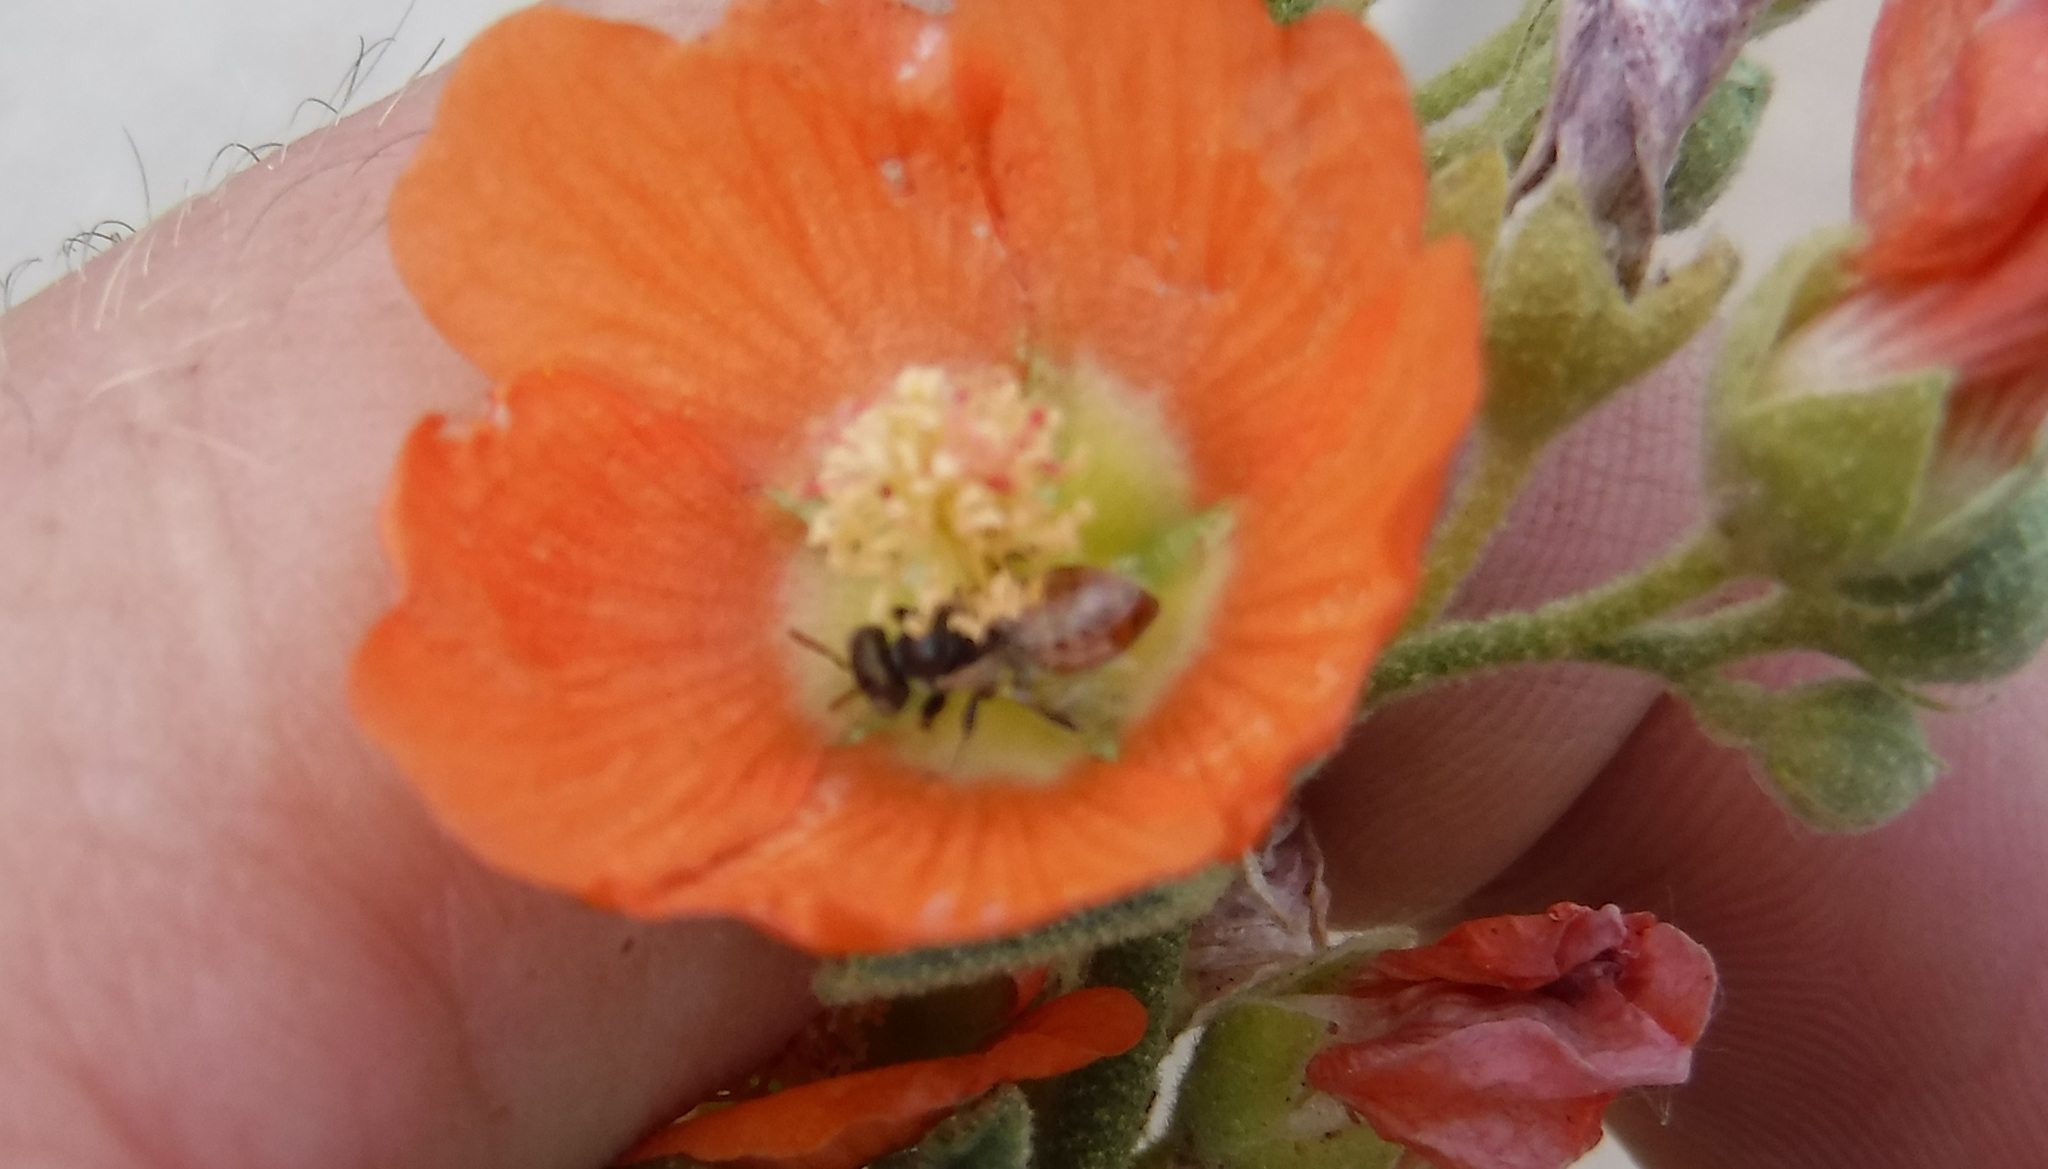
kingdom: Animalia
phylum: Arthropoda
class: Insecta
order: Hymenoptera
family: Andrenidae
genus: Macrotera
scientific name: Macrotera latior
